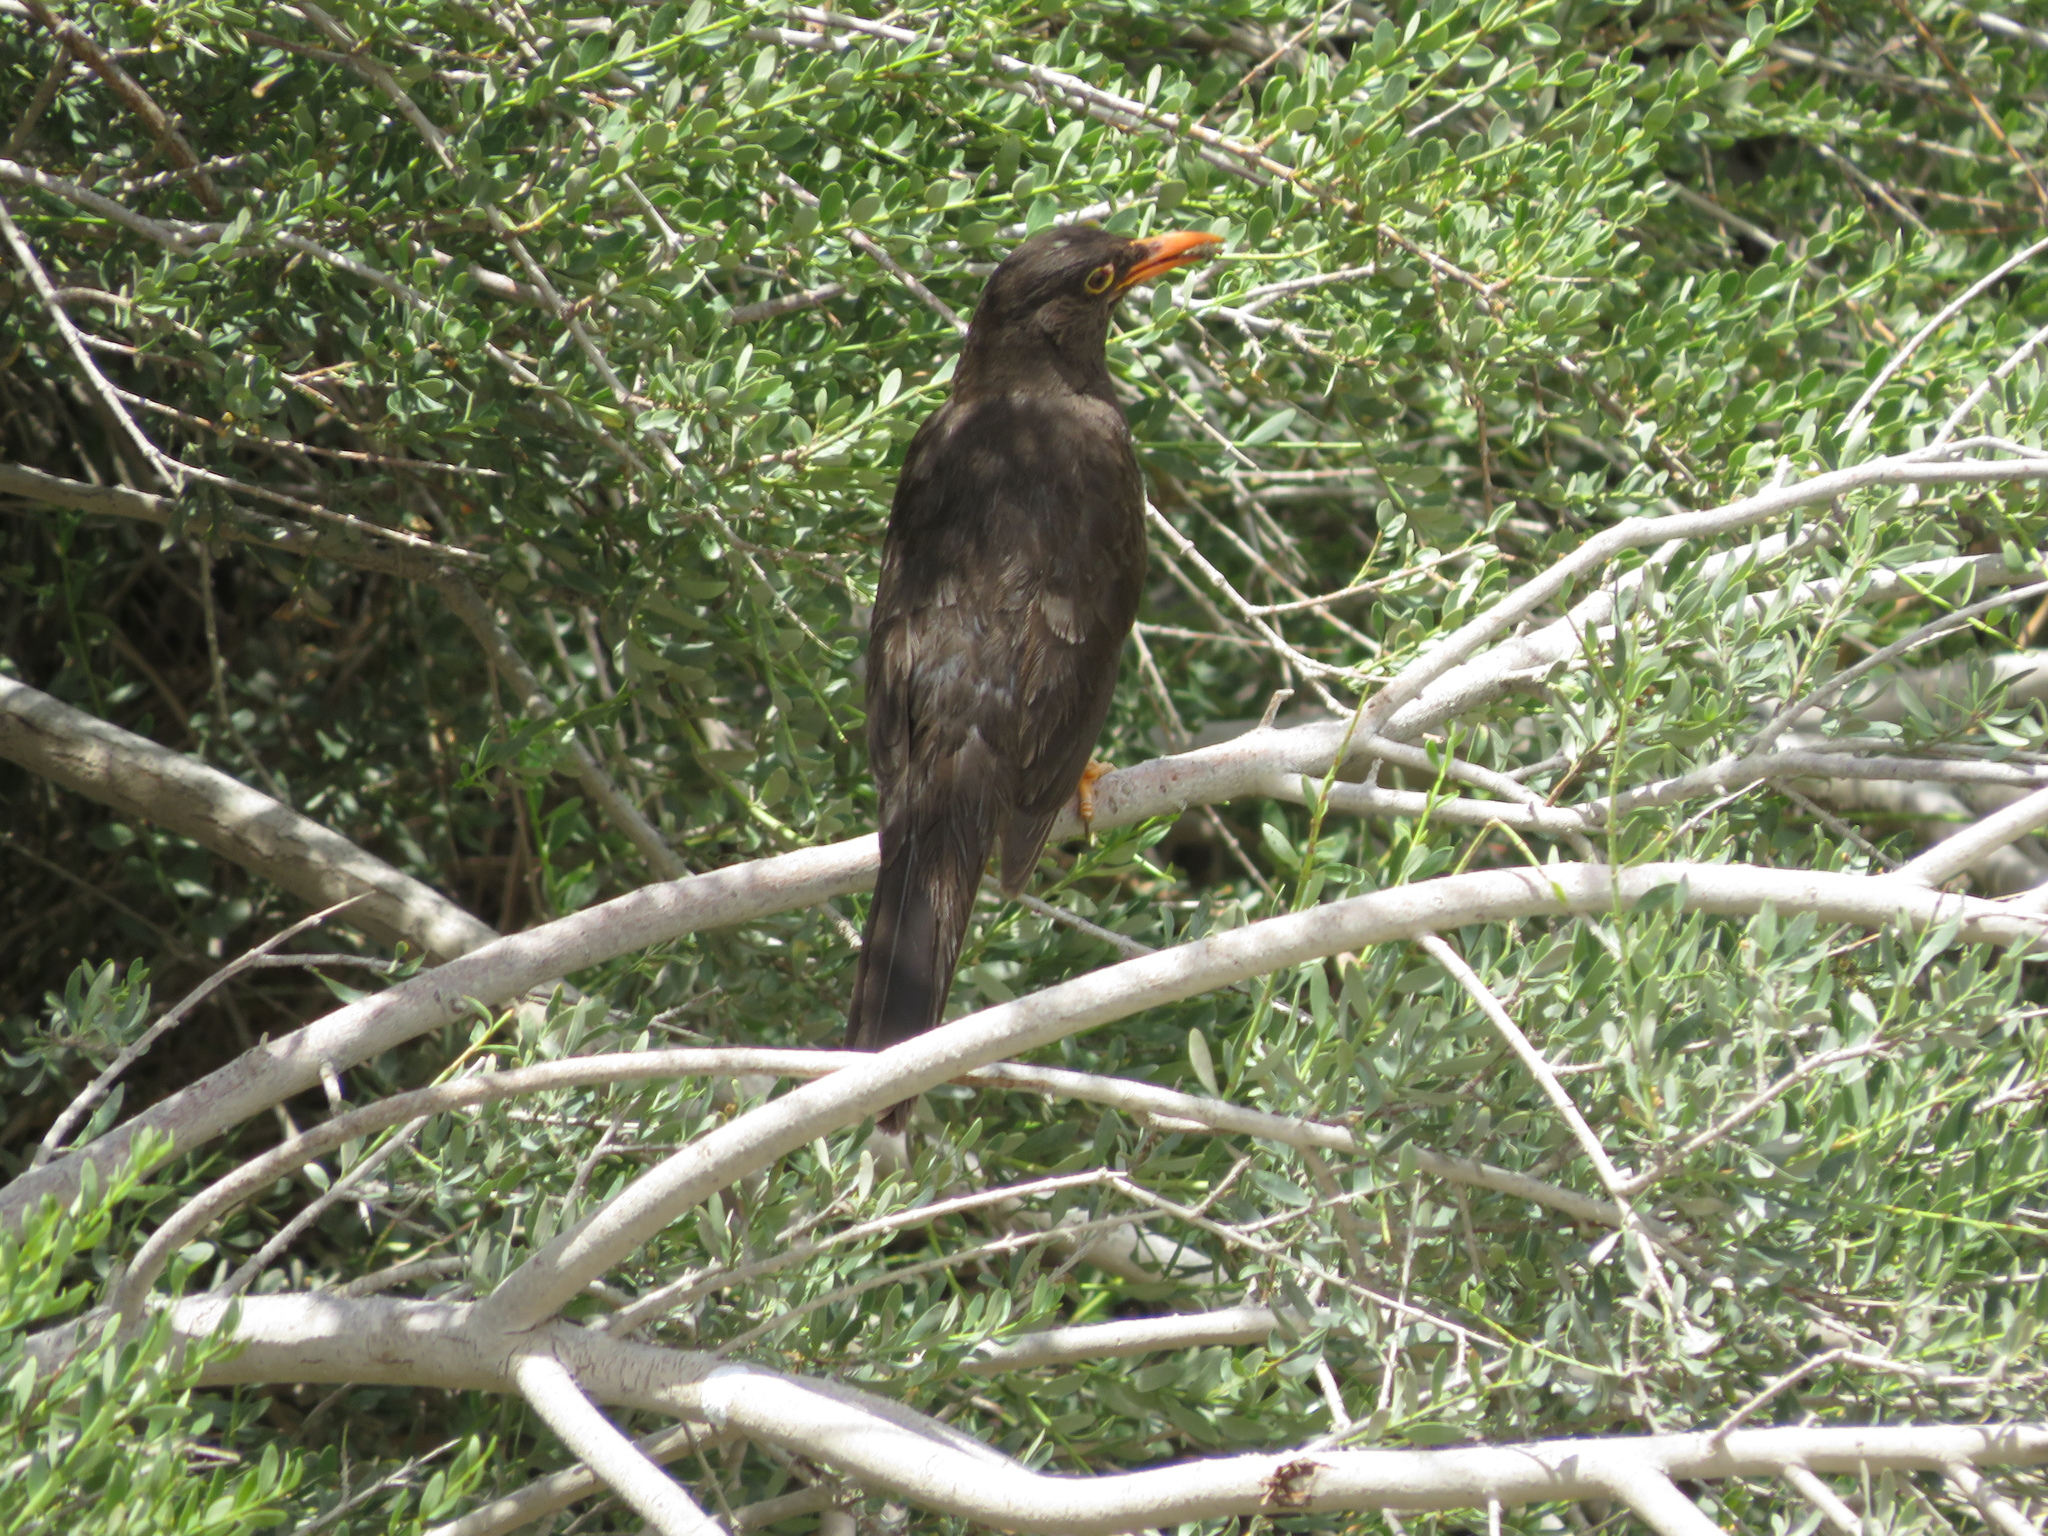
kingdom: Animalia
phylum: Chordata
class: Aves
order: Passeriformes
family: Turdidae
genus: Turdus
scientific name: Turdus chiguanco
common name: Chiguanco thrush
